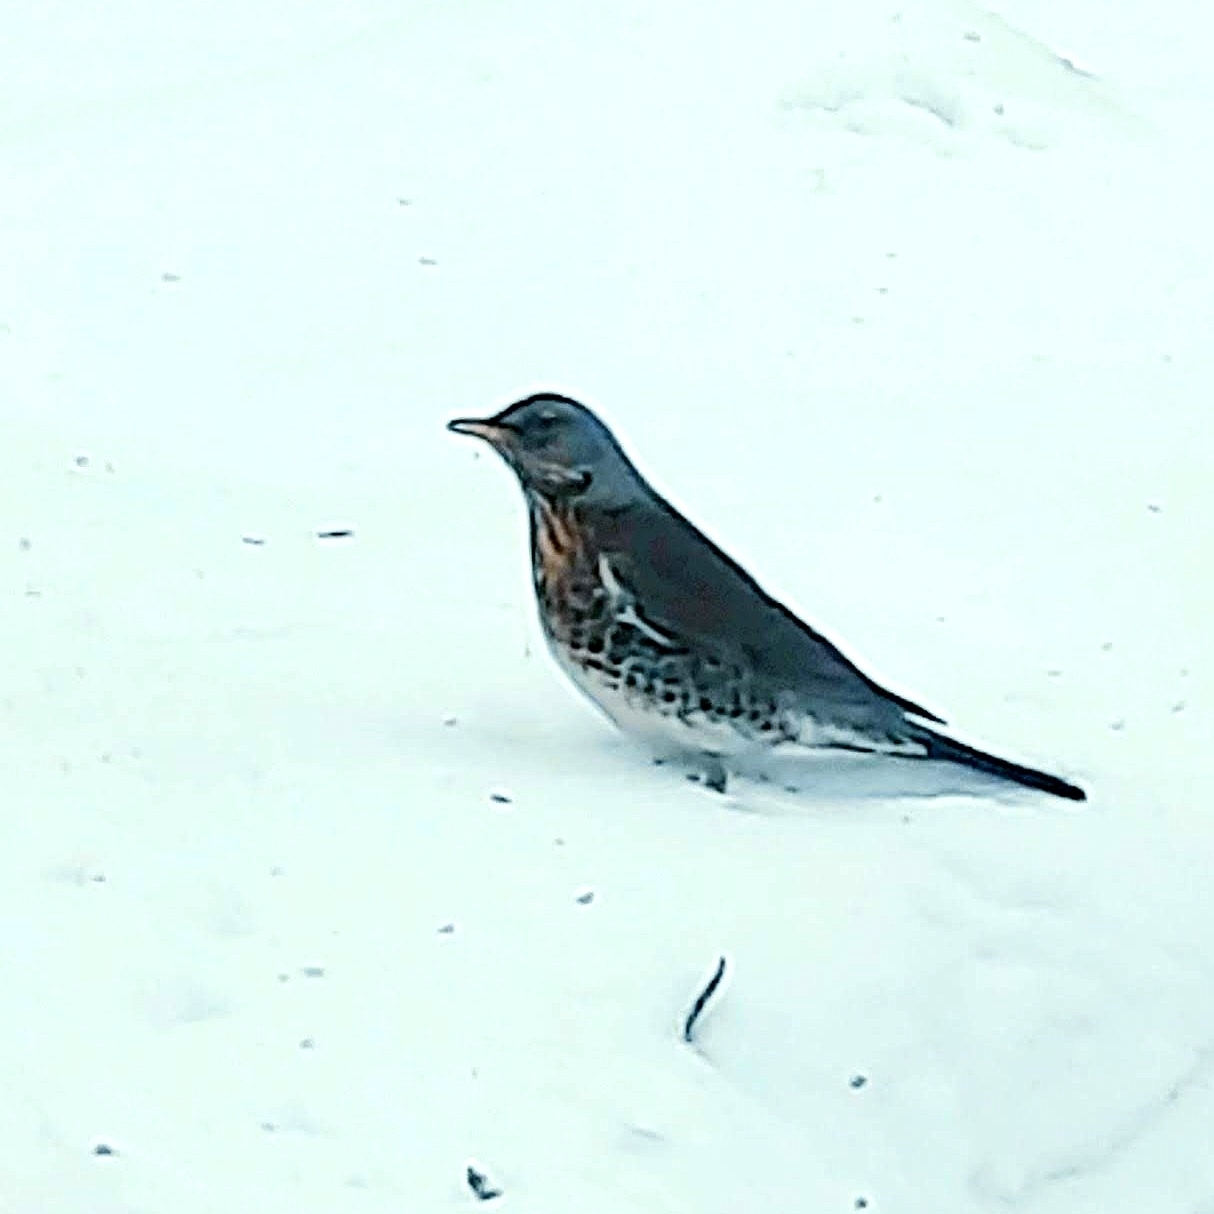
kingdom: Animalia
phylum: Chordata
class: Aves
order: Passeriformes
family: Turdidae
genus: Turdus
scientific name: Turdus pilaris
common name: Fieldfare
